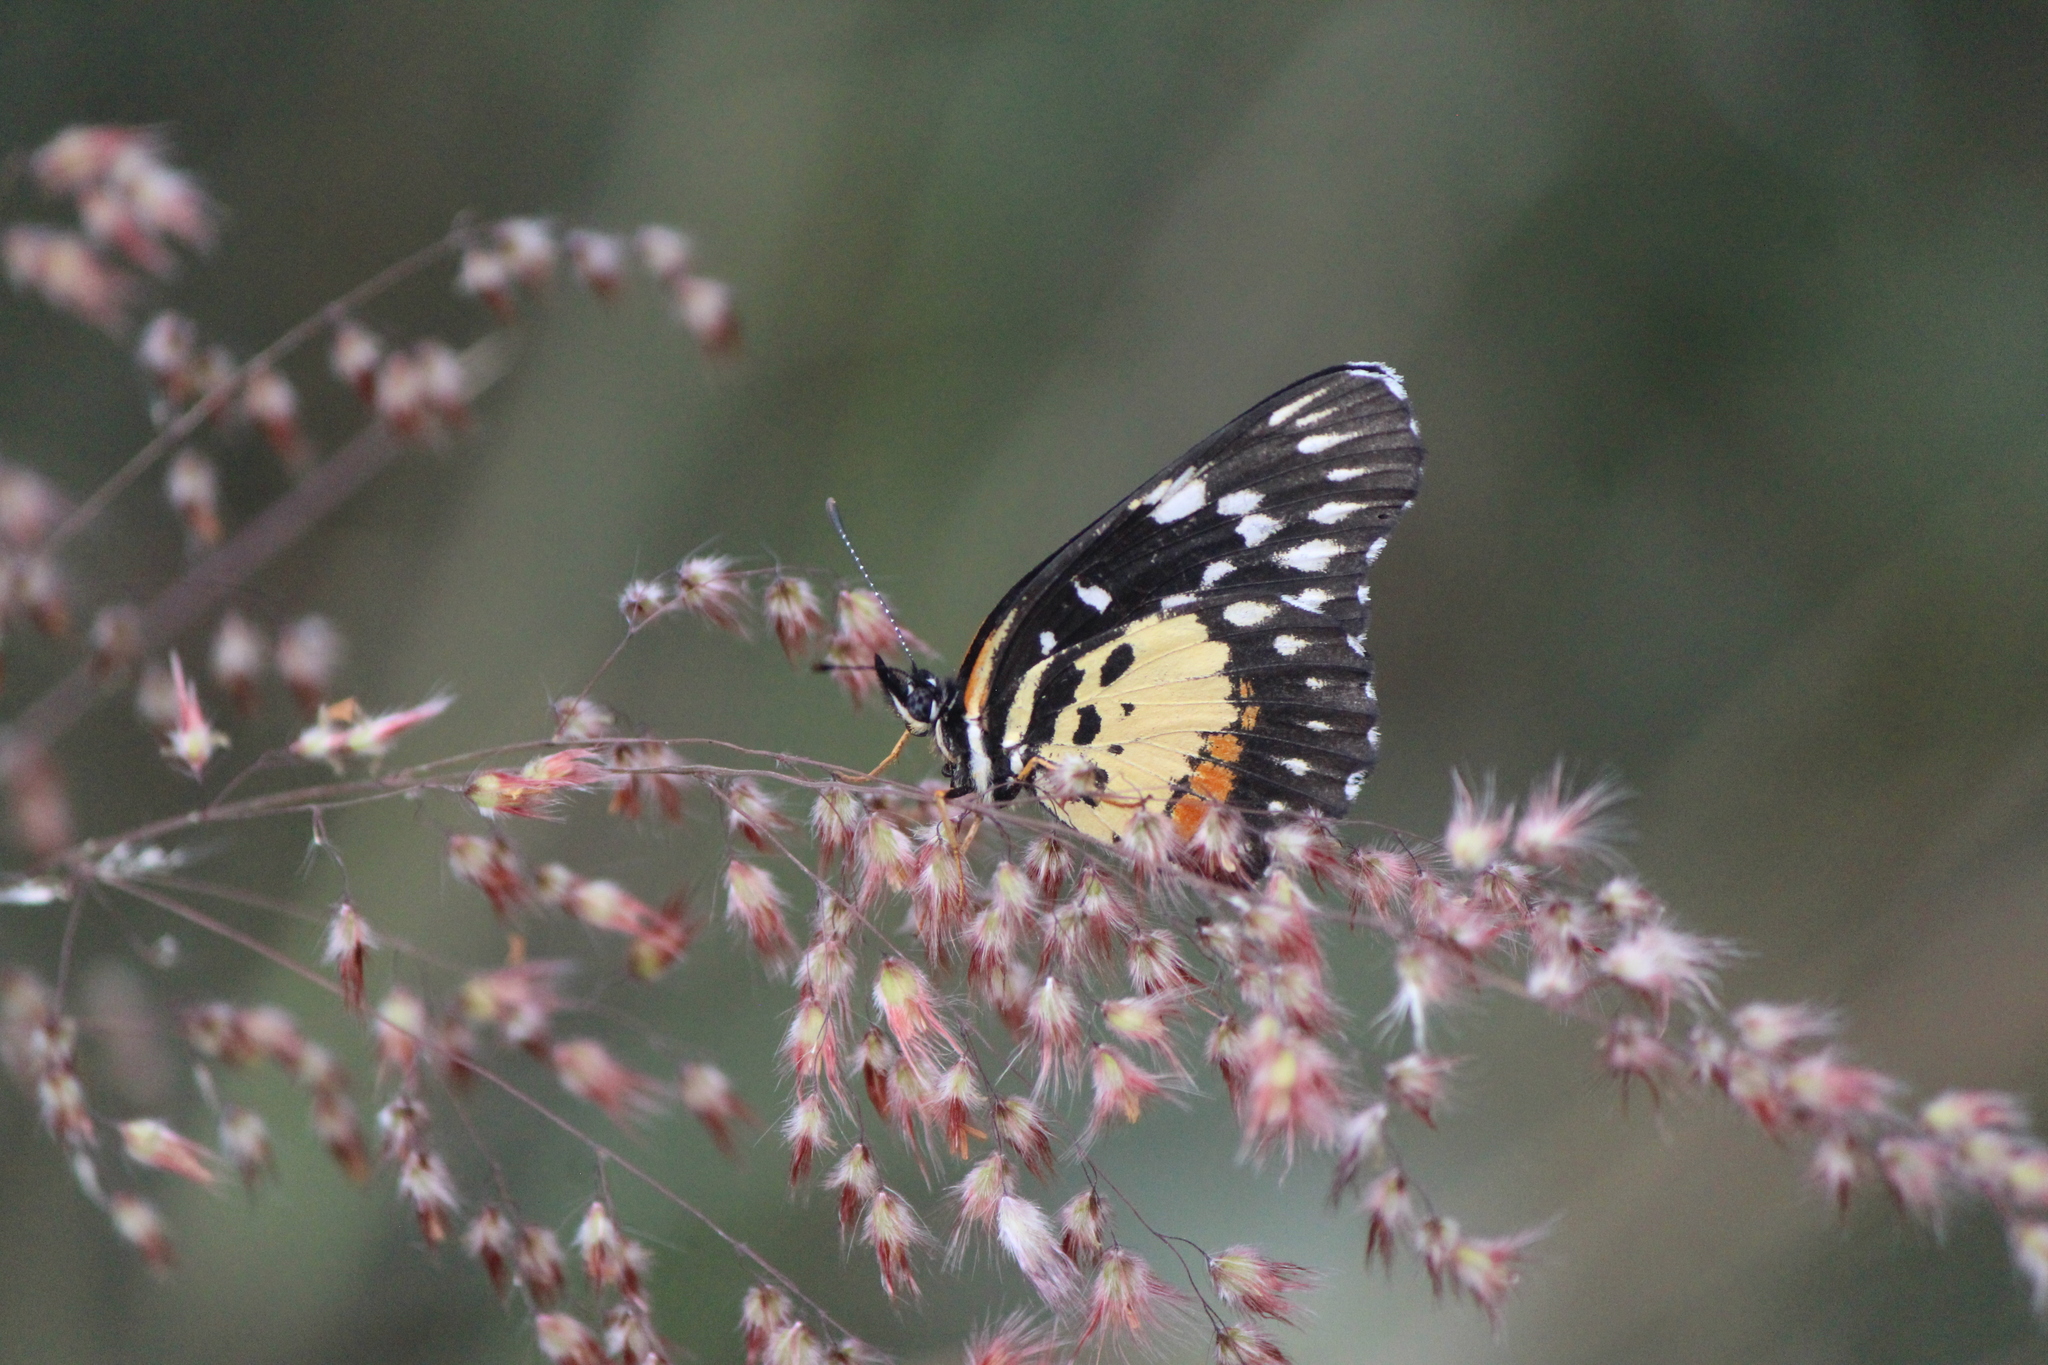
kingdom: Animalia
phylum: Arthropoda
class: Insecta
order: Lepidoptera
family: Nymphalidae
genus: Chlosyne
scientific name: Chlosyne rosita
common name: Rosita patch
